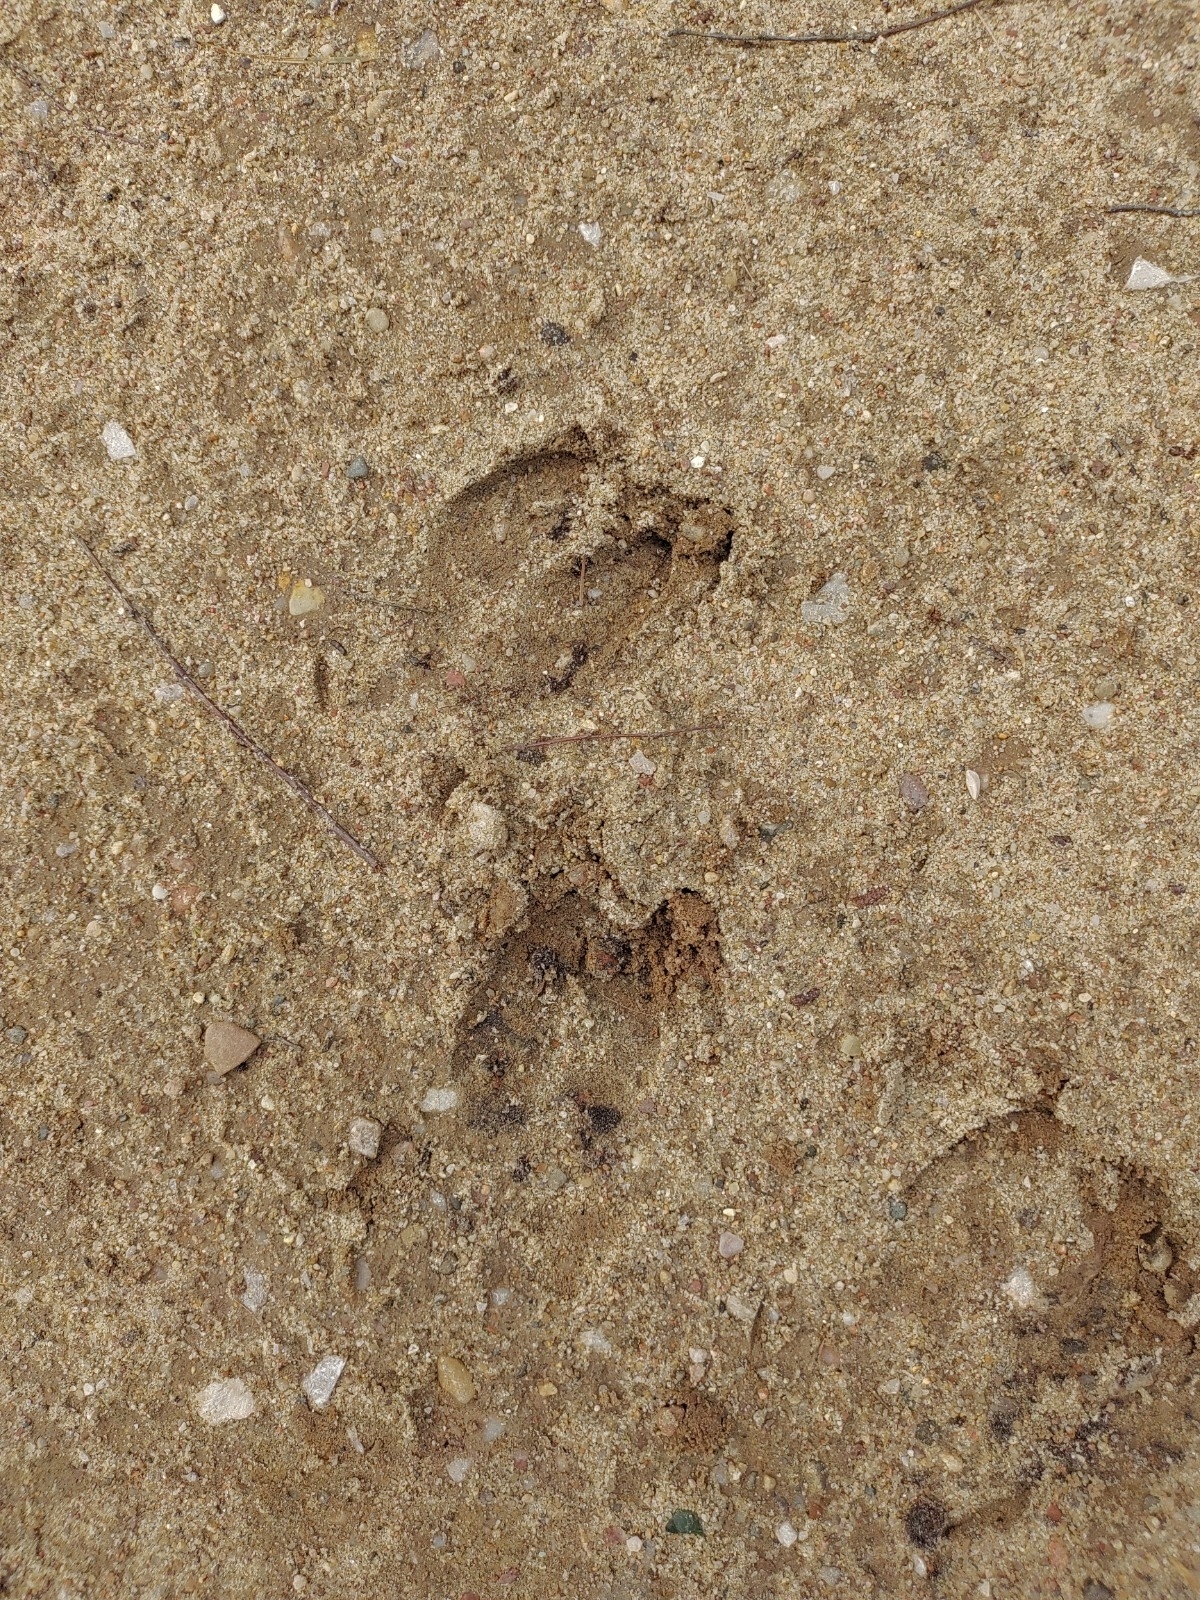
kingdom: Animalia
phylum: Chordata
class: Mammalia
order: Artiodactyla
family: Cervidae
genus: Capreolus
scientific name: Capreolus capreolus
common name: Western roe deer
